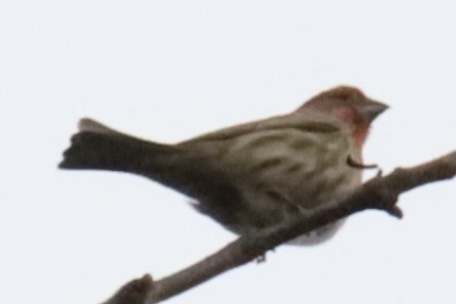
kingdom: Animalia
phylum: Chordata
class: Aves
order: Passeriformes
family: Fringillidae
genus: Haemorhous
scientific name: Haemorhous mexicanus
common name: House finch
